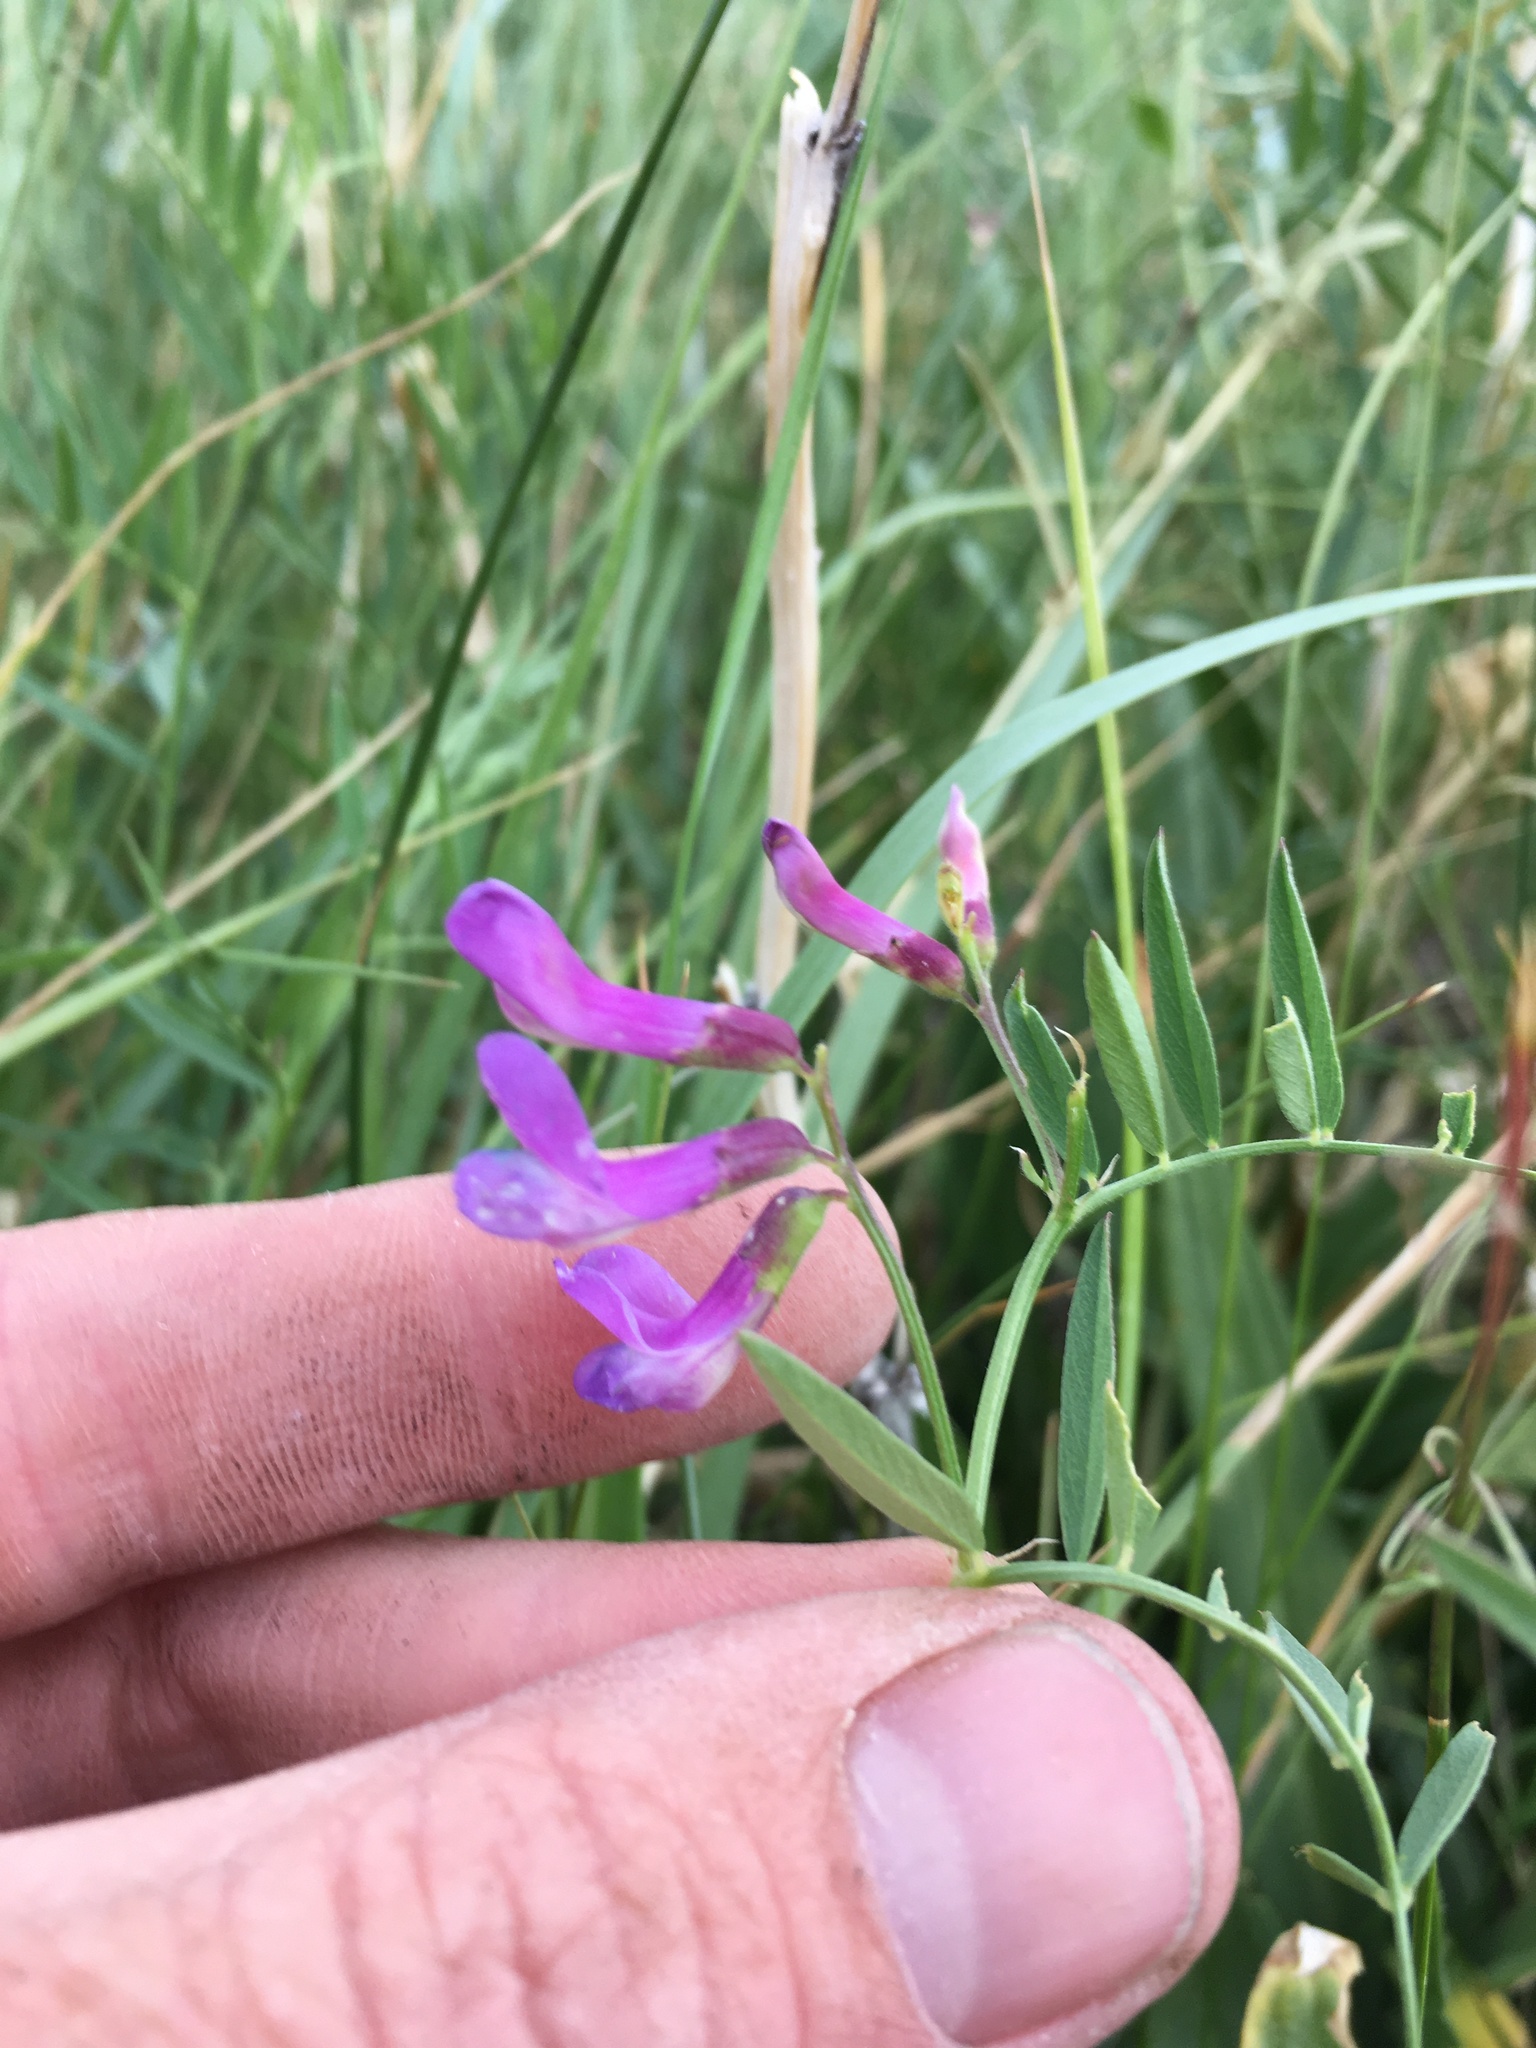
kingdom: Plantae
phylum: Tracheophyta
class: Magnoliopsida
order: Fabales
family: Fabaceae
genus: Vicia
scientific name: Vicia americana
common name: American vetch
